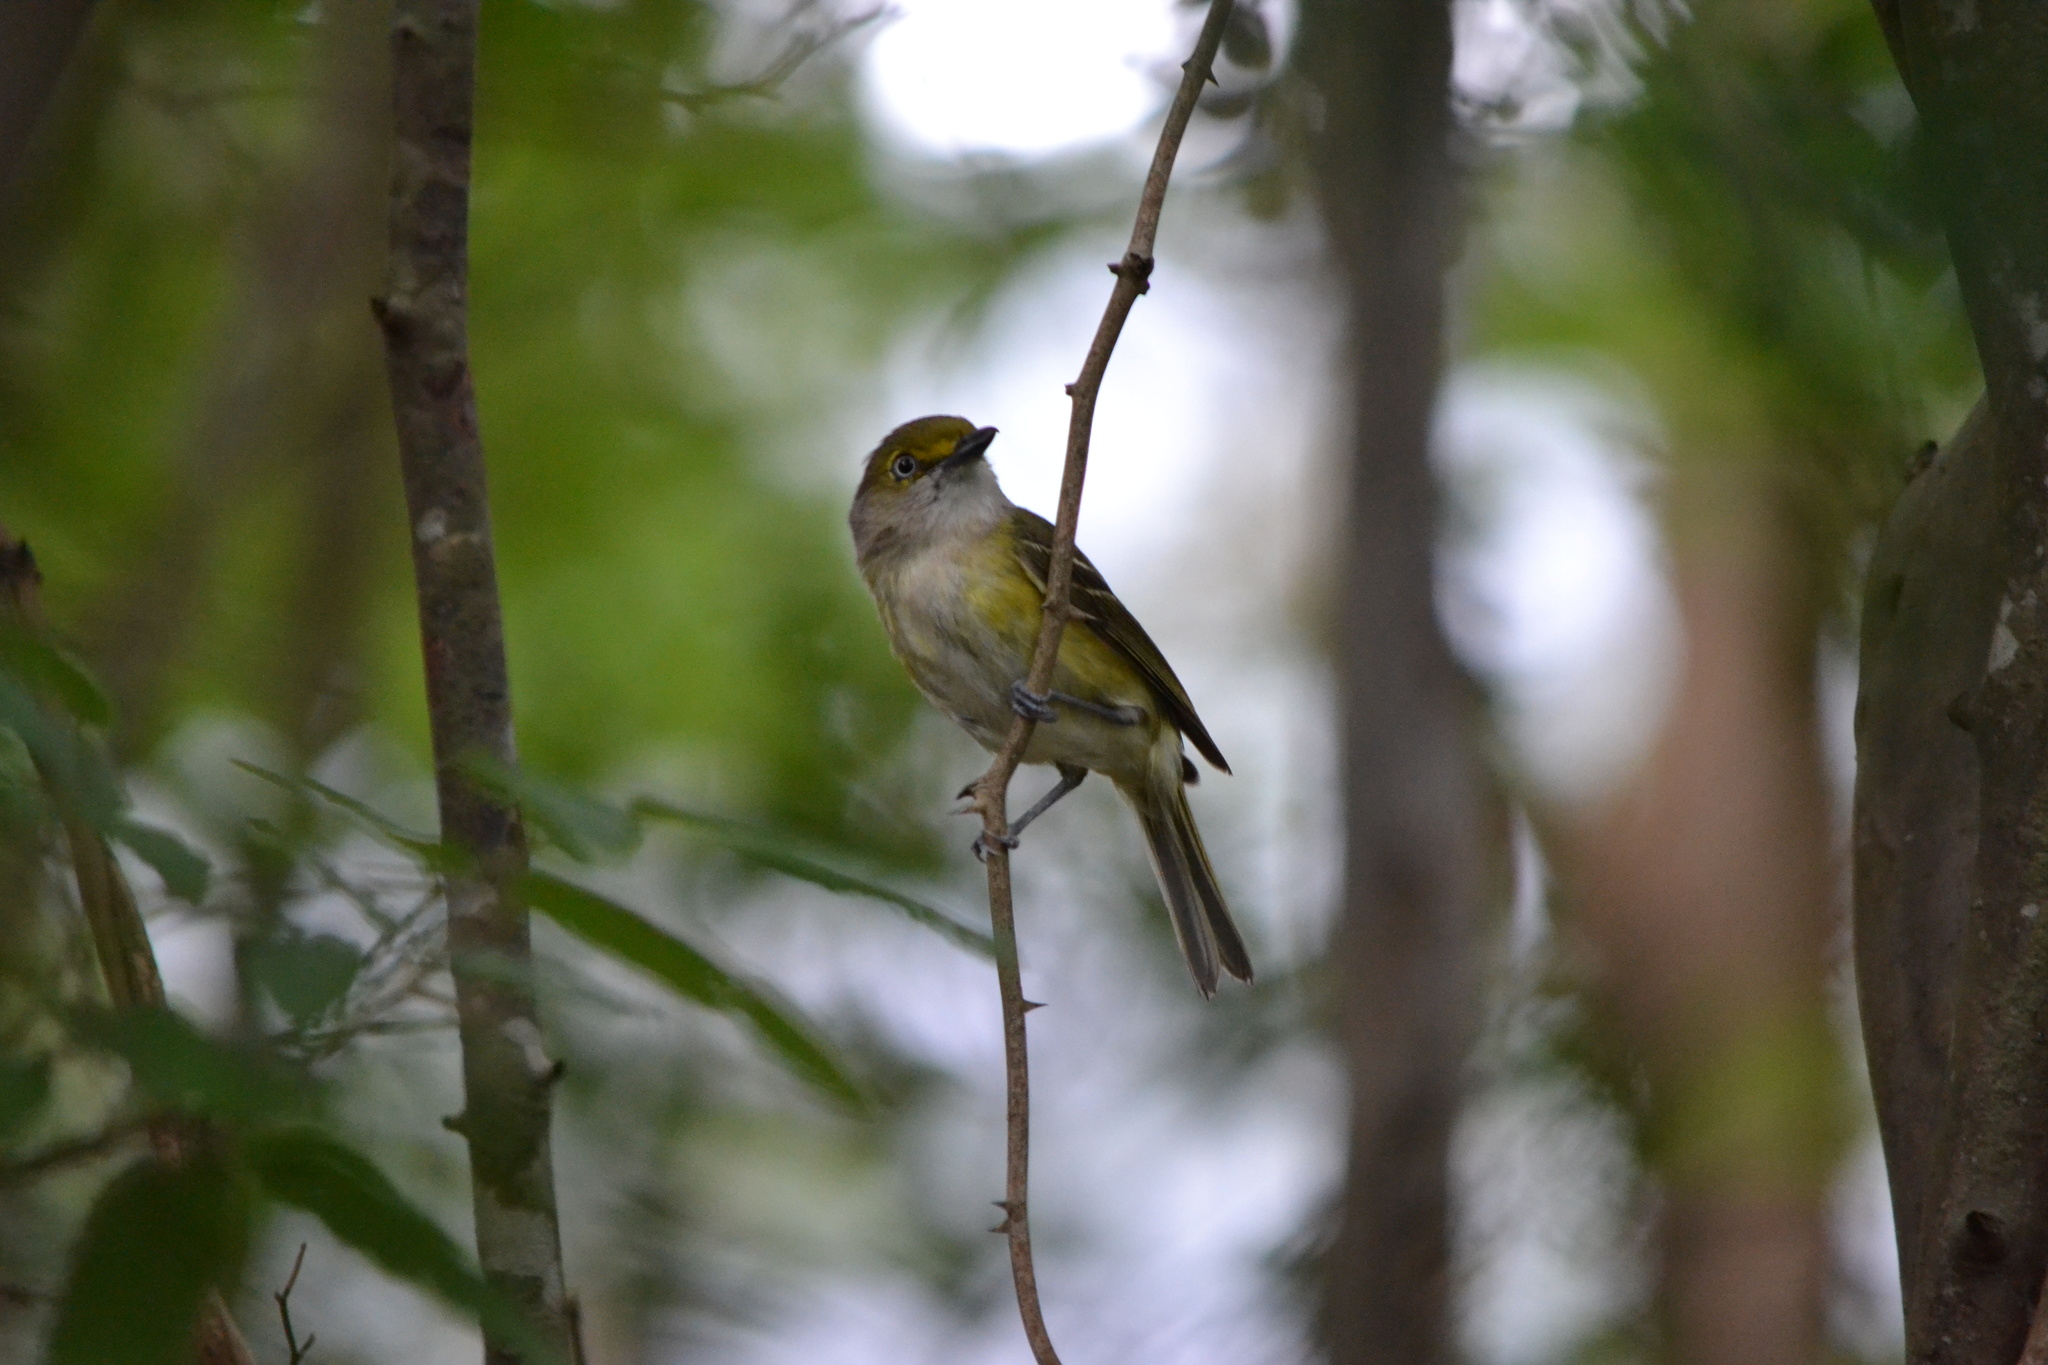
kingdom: Animalia
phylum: Chordata
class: Aves
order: Passeriformes
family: Vireonidae
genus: Vireo
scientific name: Vireo griseus
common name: White-eyed vireo
